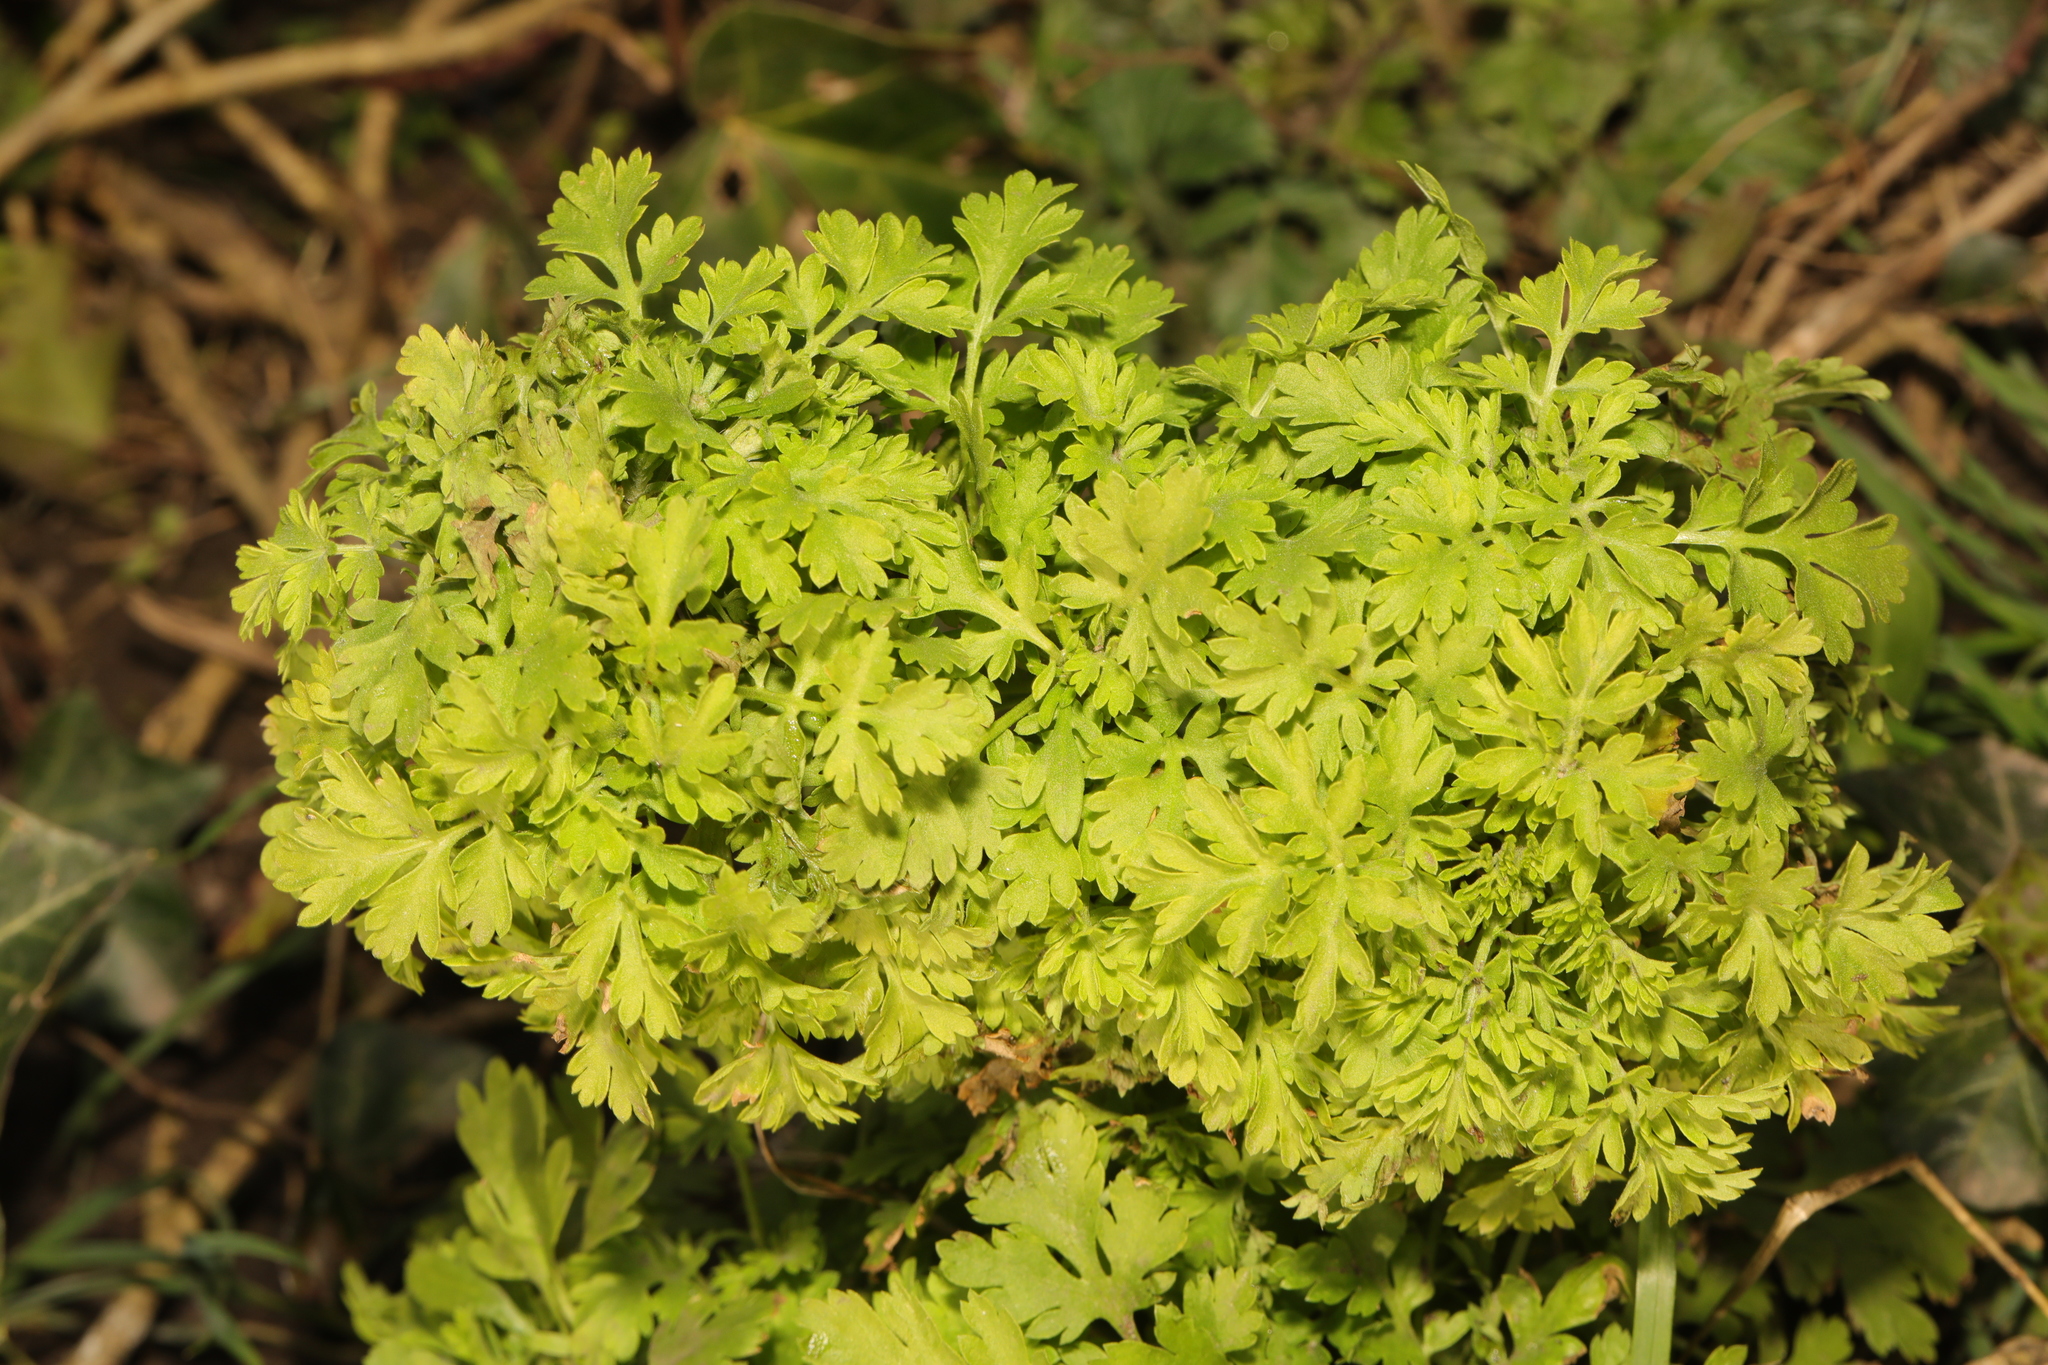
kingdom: Plantae
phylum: Tracheophyta
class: Magnoliopsida
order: Asterales
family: Asteraceae
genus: Tanacetum
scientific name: Tanacetum parthenium
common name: Feverfew
